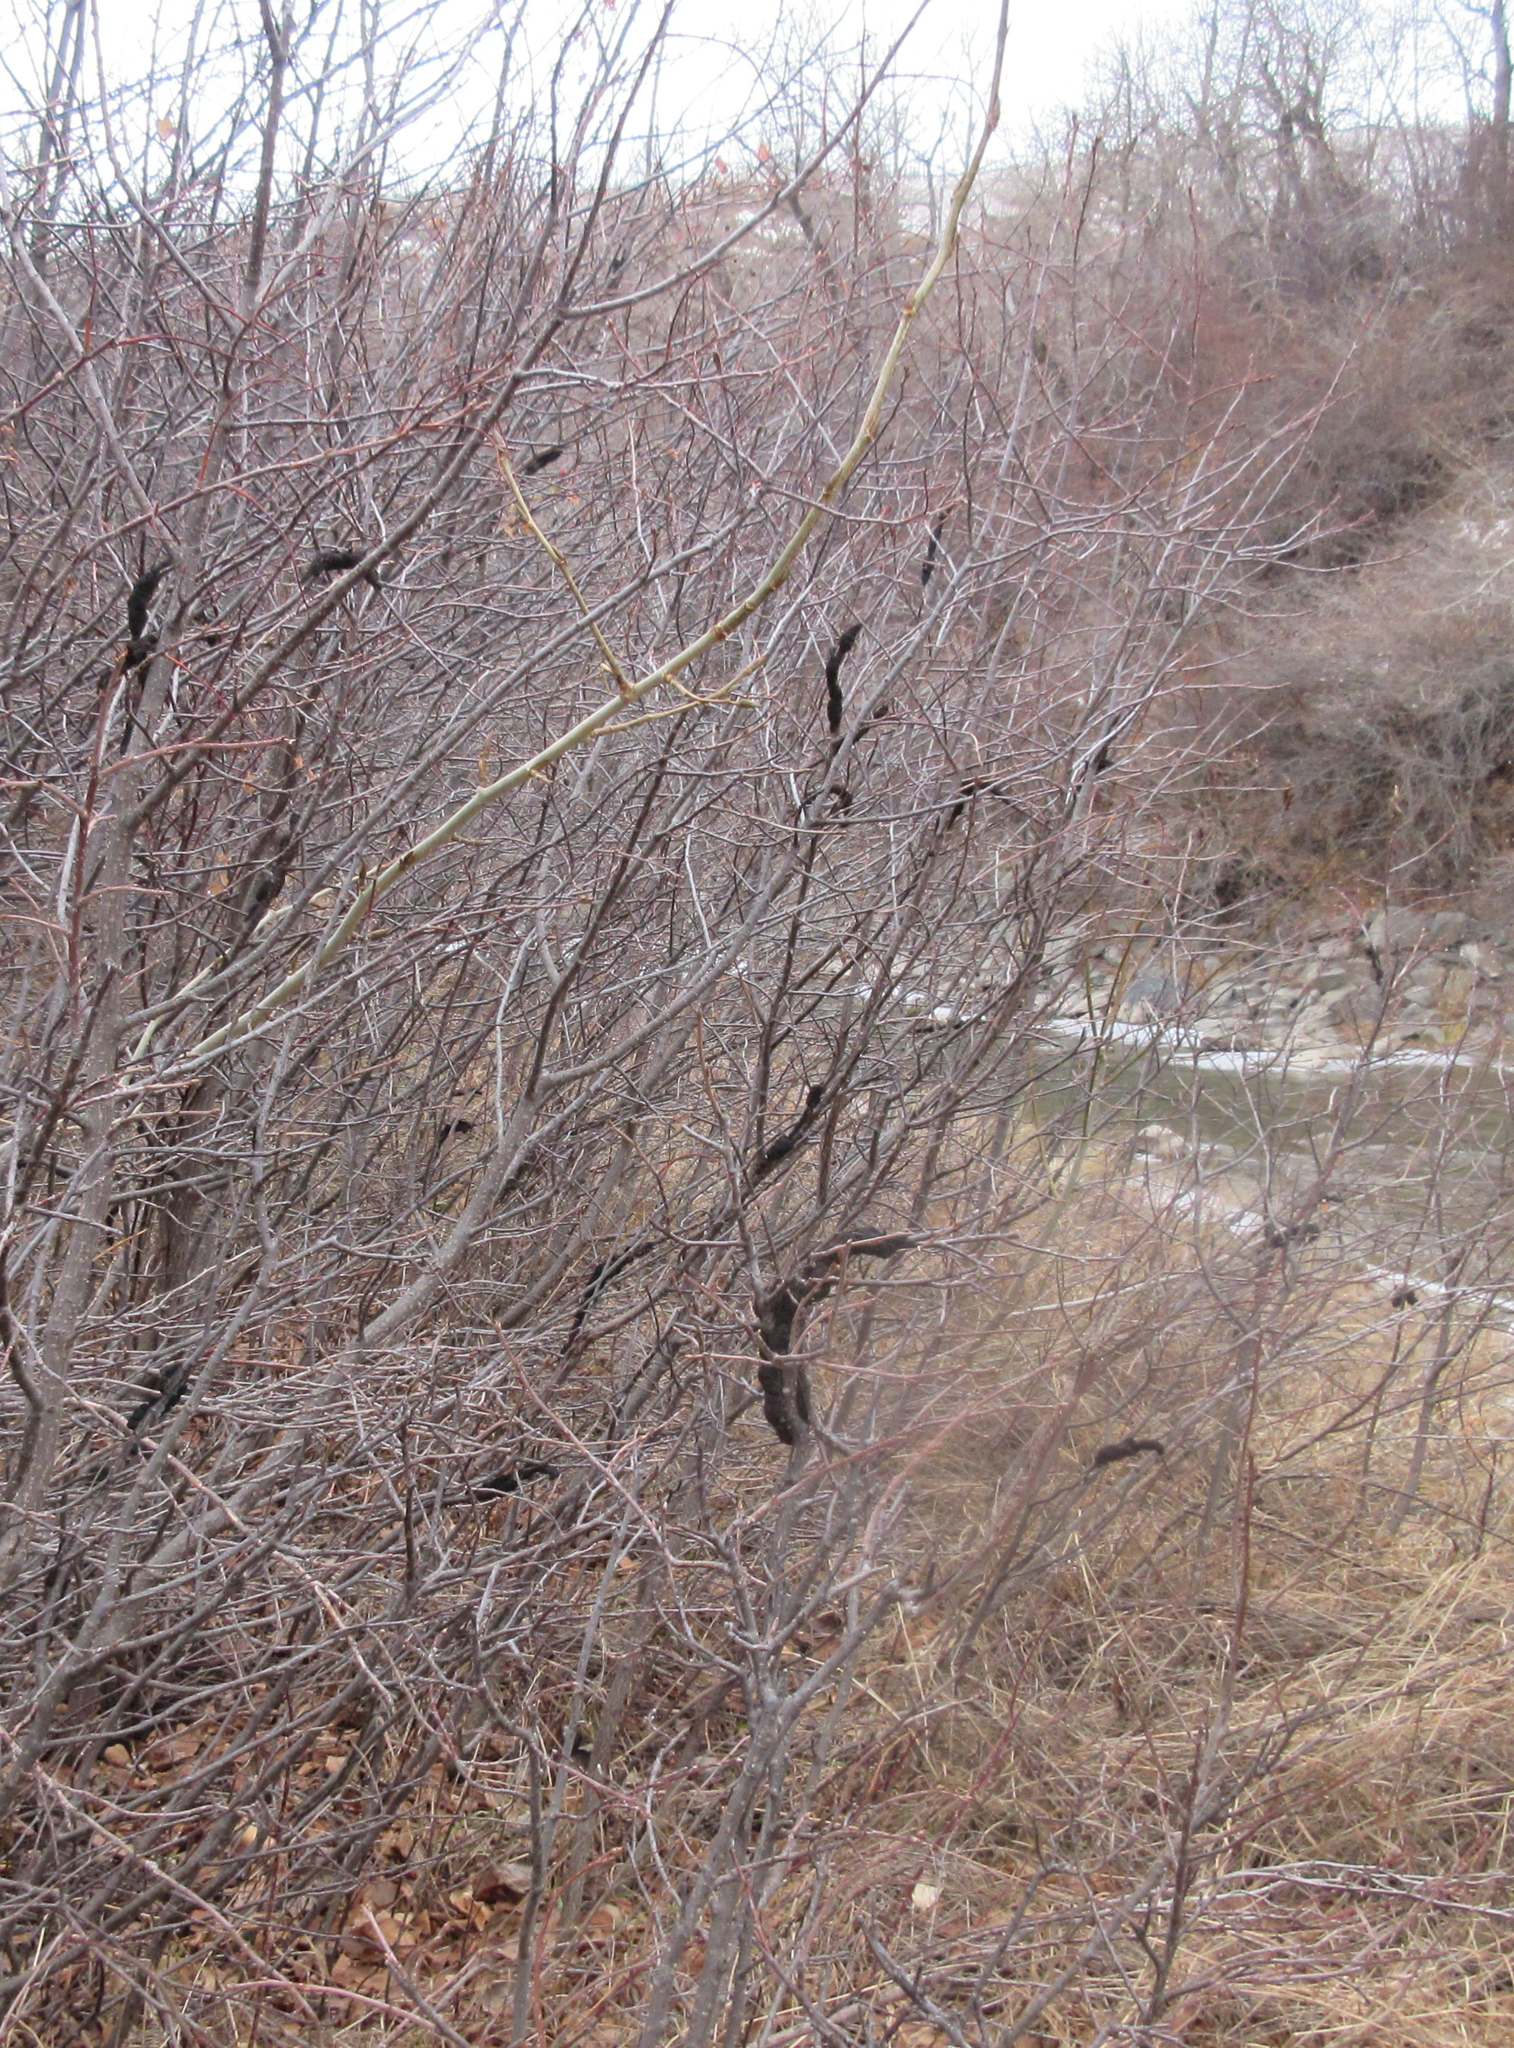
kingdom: Fungi
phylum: Ascomycota
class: Dothideomycetes
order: Venturiales
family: Venturiaceae
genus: Apiosporina
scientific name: Apiosporina morbosa
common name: Black knot
